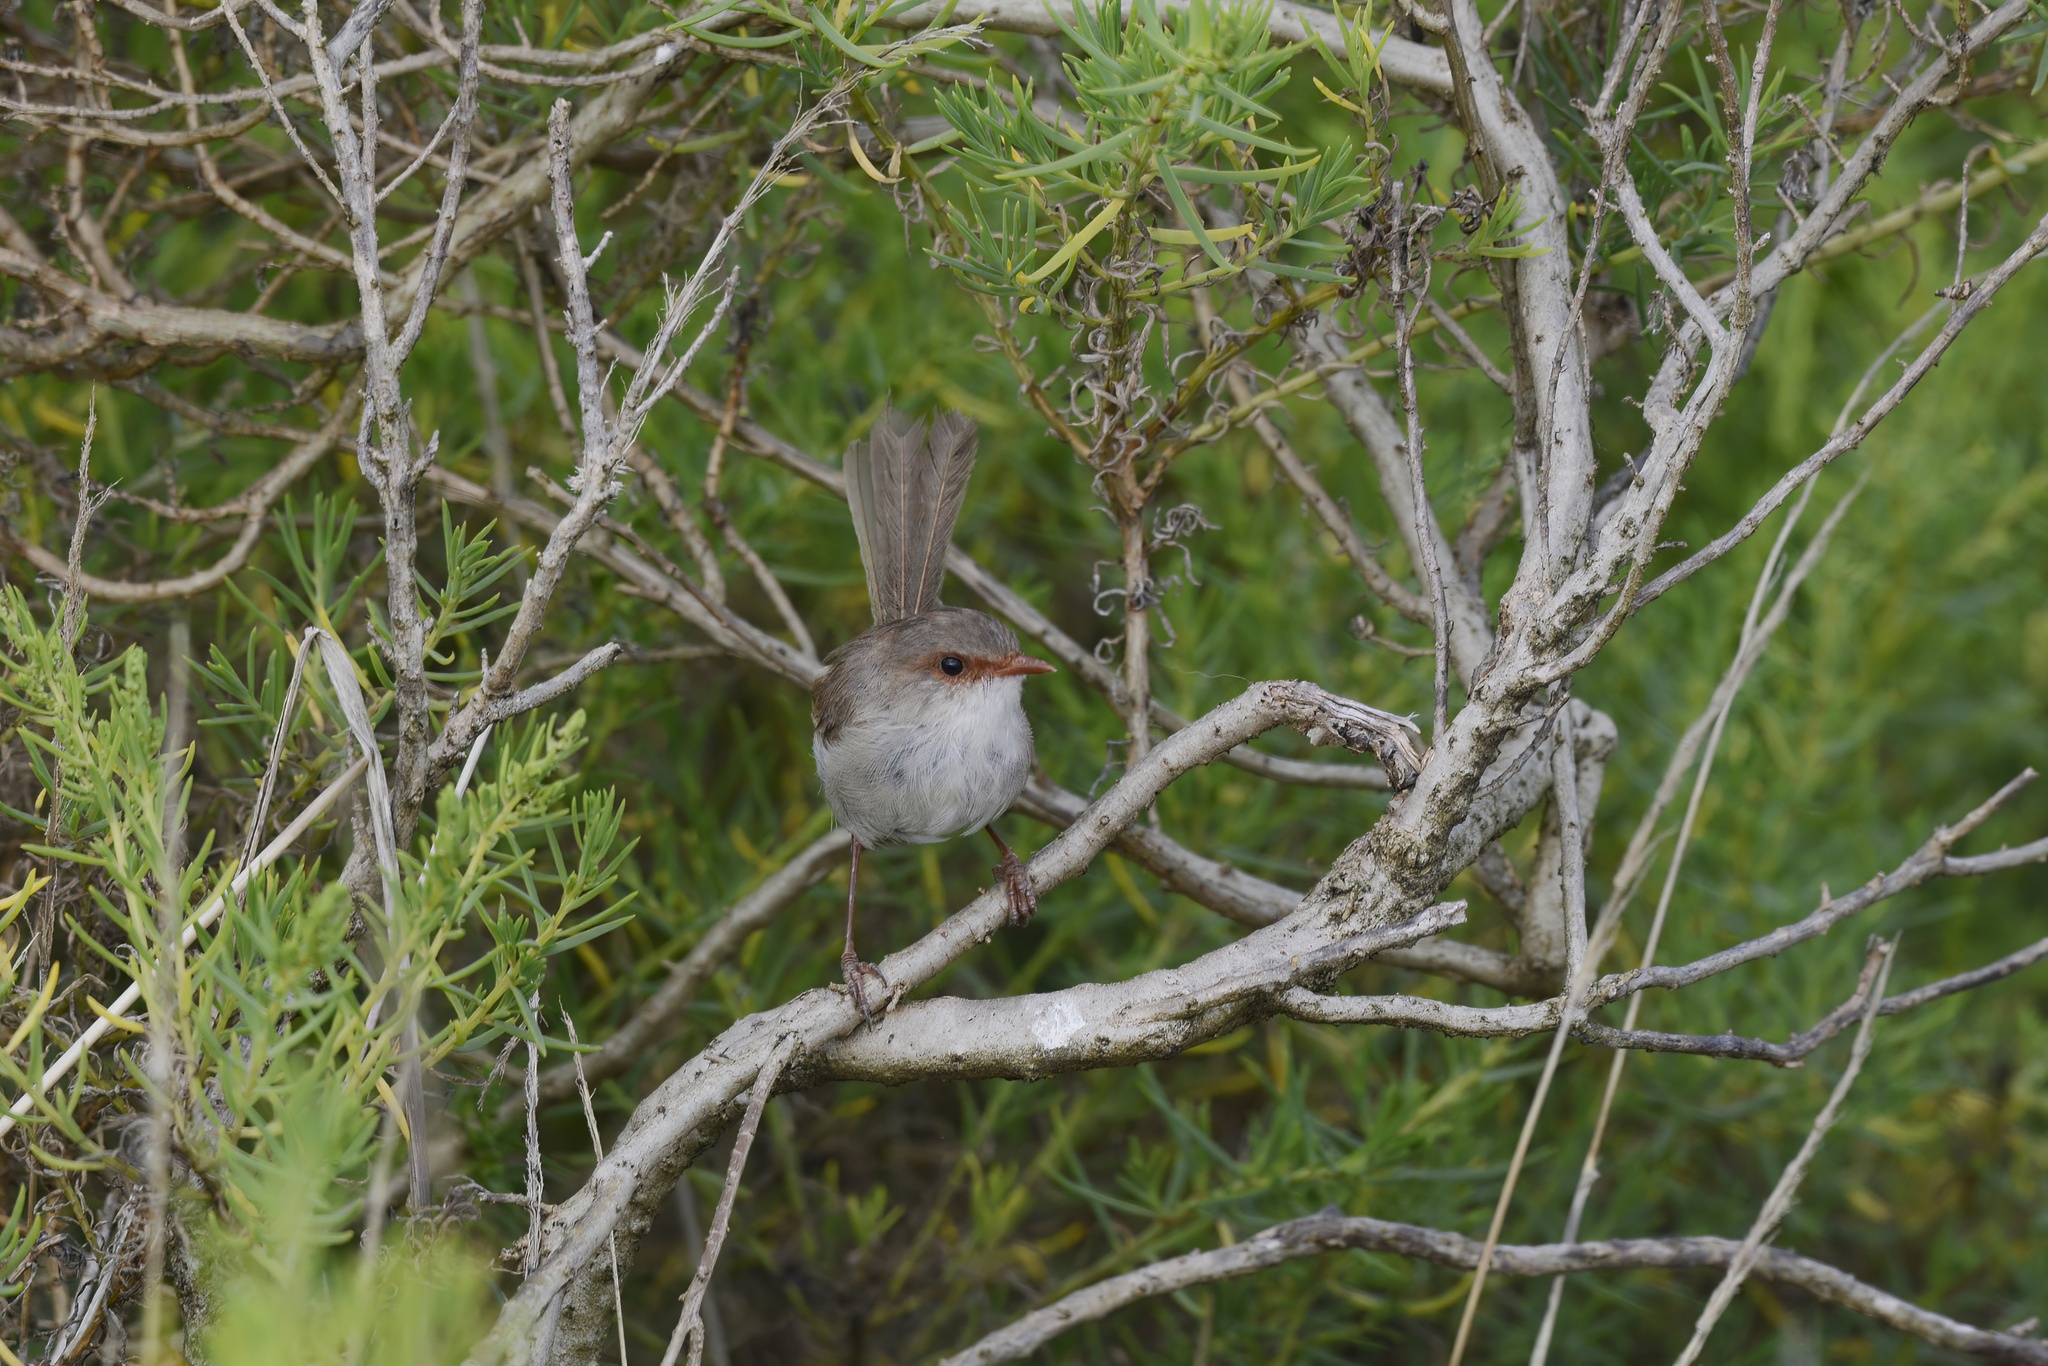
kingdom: Animalia
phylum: Chordata
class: Aves
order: Passeriformes
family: Maluridae
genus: Malurus
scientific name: Malurus cyaneus
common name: Superb fairywren
